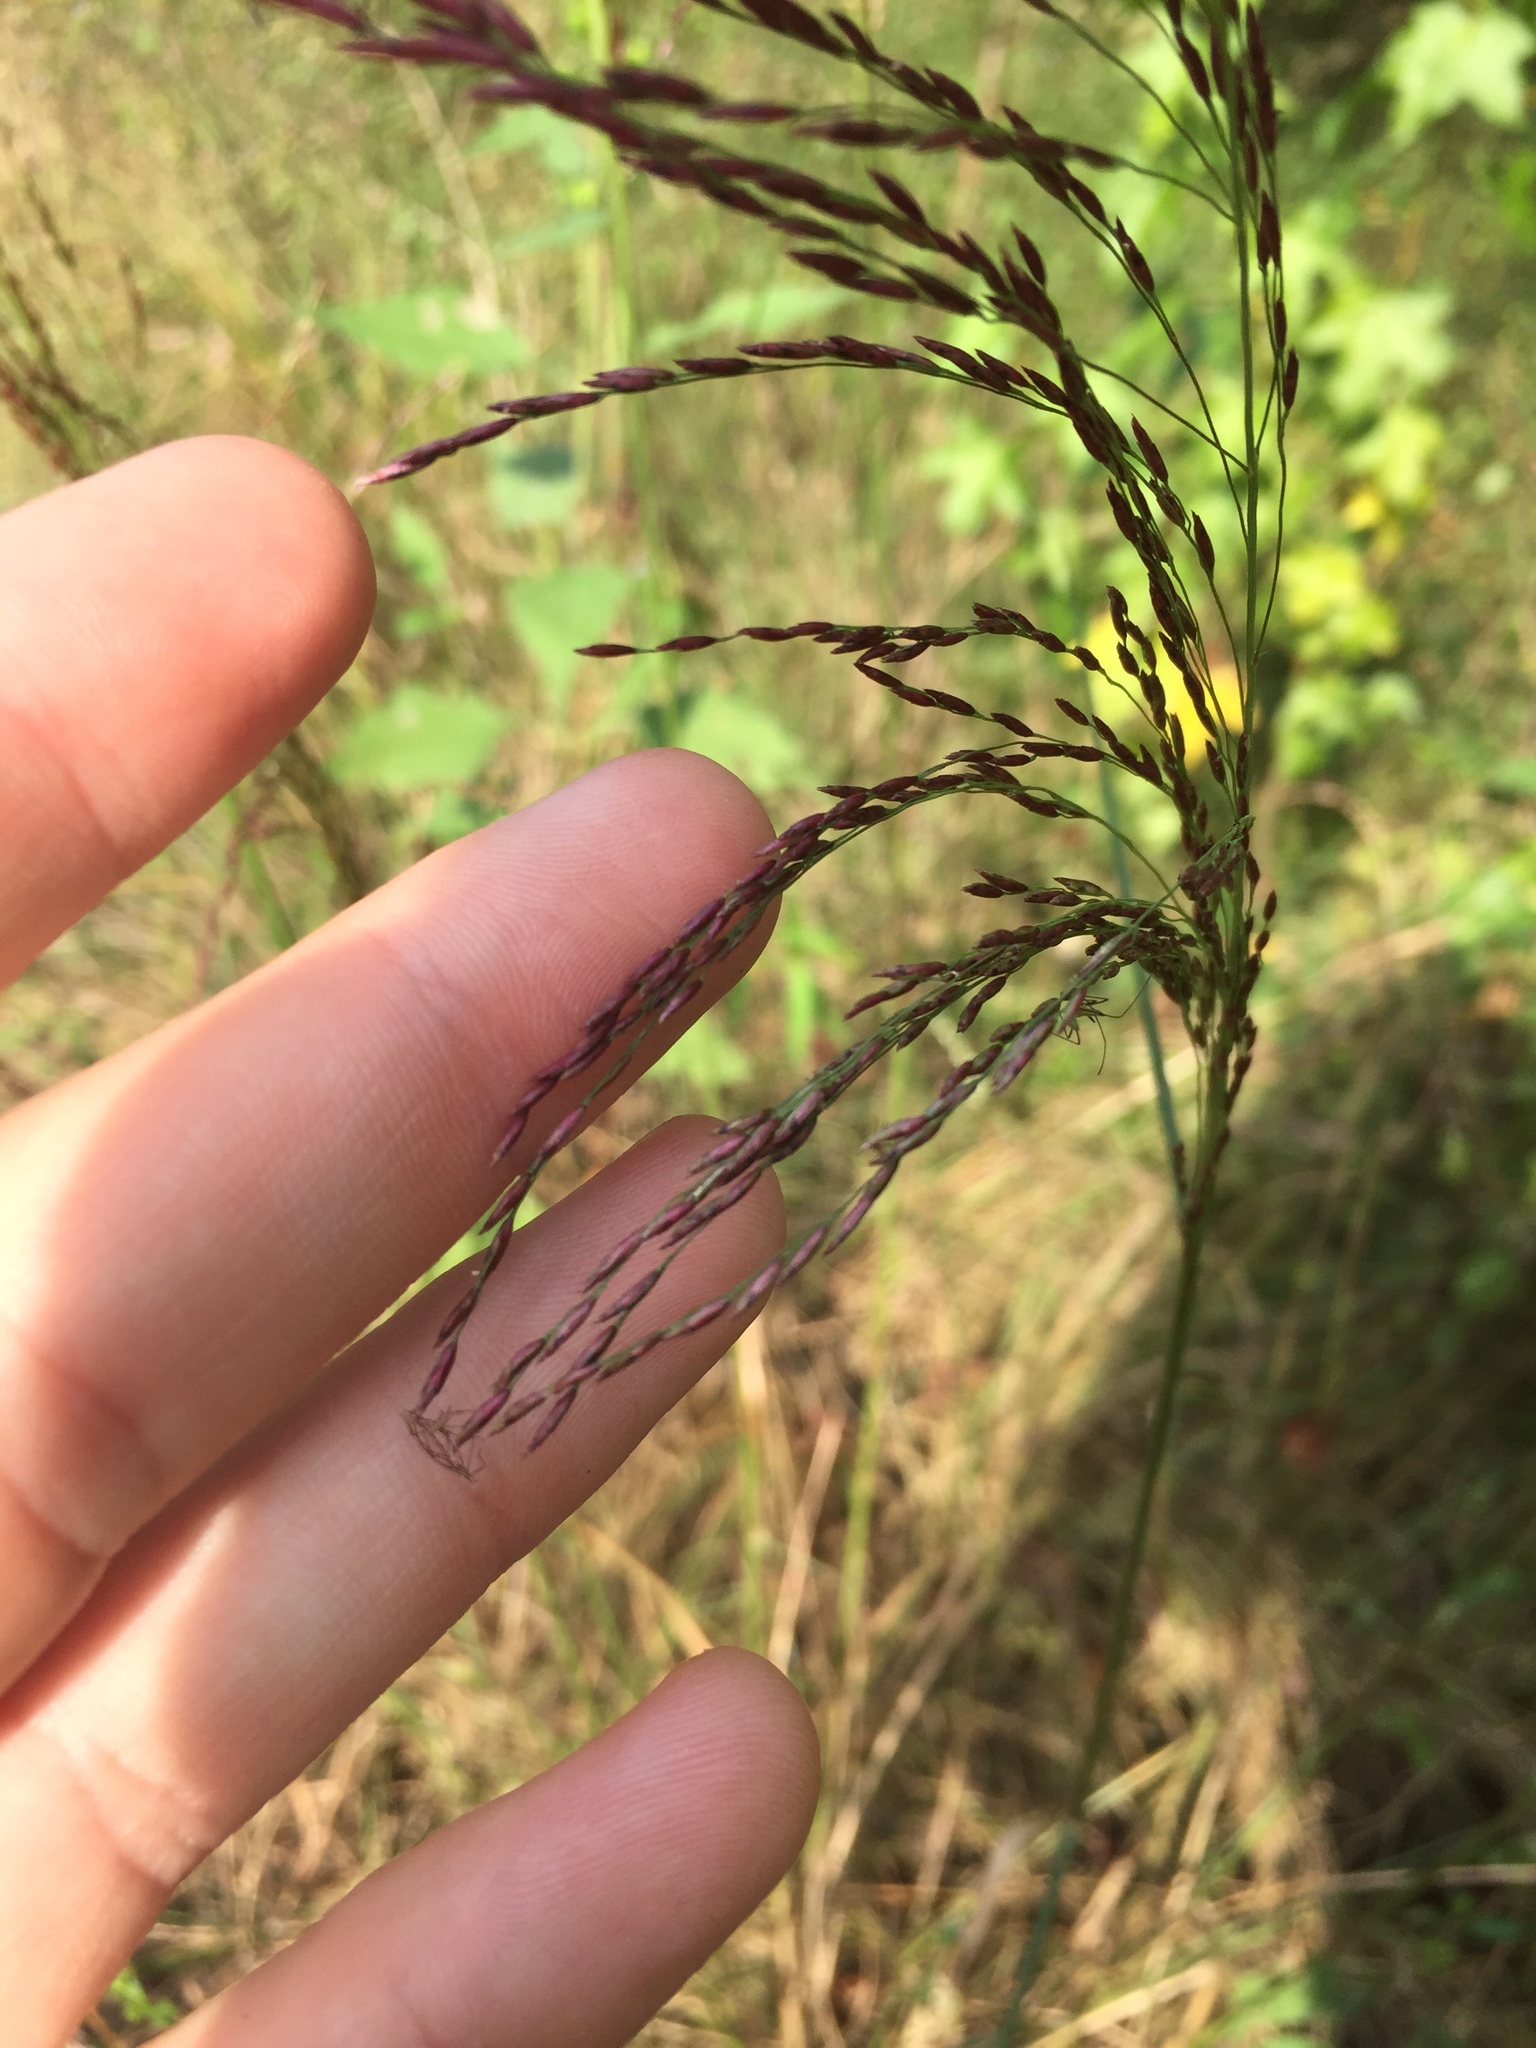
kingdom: Plantae
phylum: Tracheophyta
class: Liliopsida
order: Poales
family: Poaceae
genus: Tridens
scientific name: Tridens flavus
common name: Purpletop
